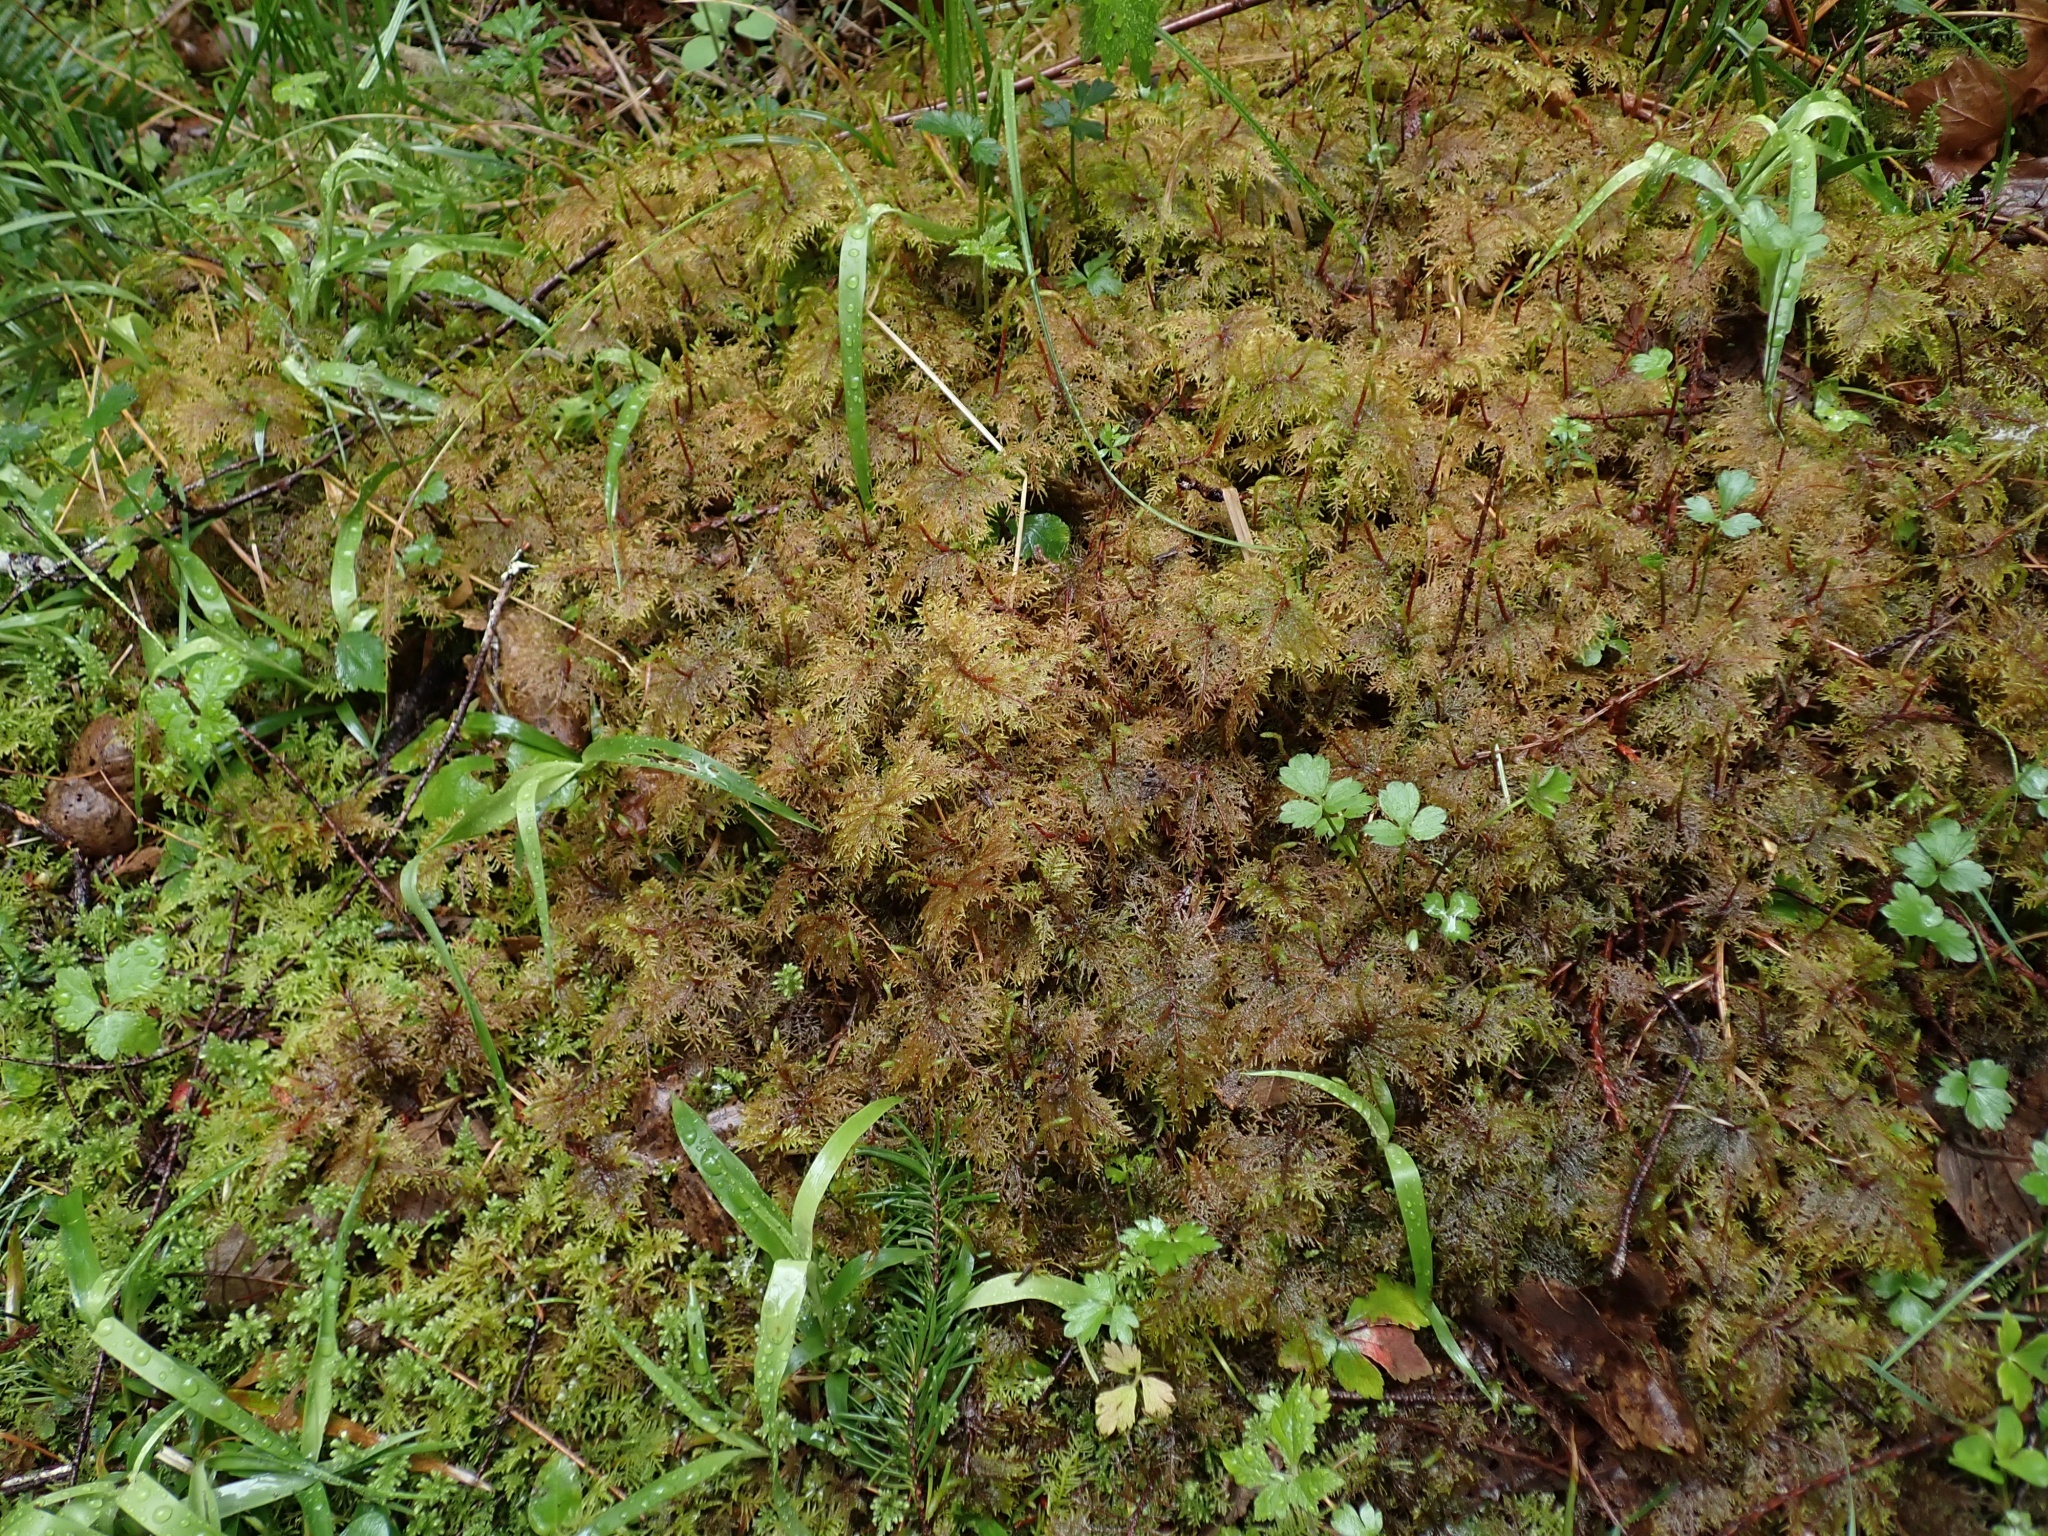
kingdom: Plantae
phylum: Bryophyta
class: Bryopsida
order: Hypnales
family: Hylocomiaceae
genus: Hylocomium
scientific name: Hylocomium splendens
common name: Stairstep moss
